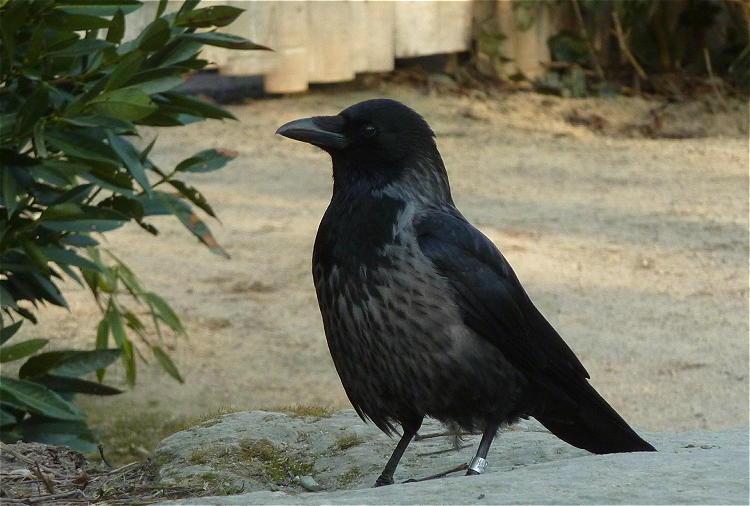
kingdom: Animalia
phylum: Chordata
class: Aves
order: Passeriformes
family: Corvidae
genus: Corvus
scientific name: Corvus
